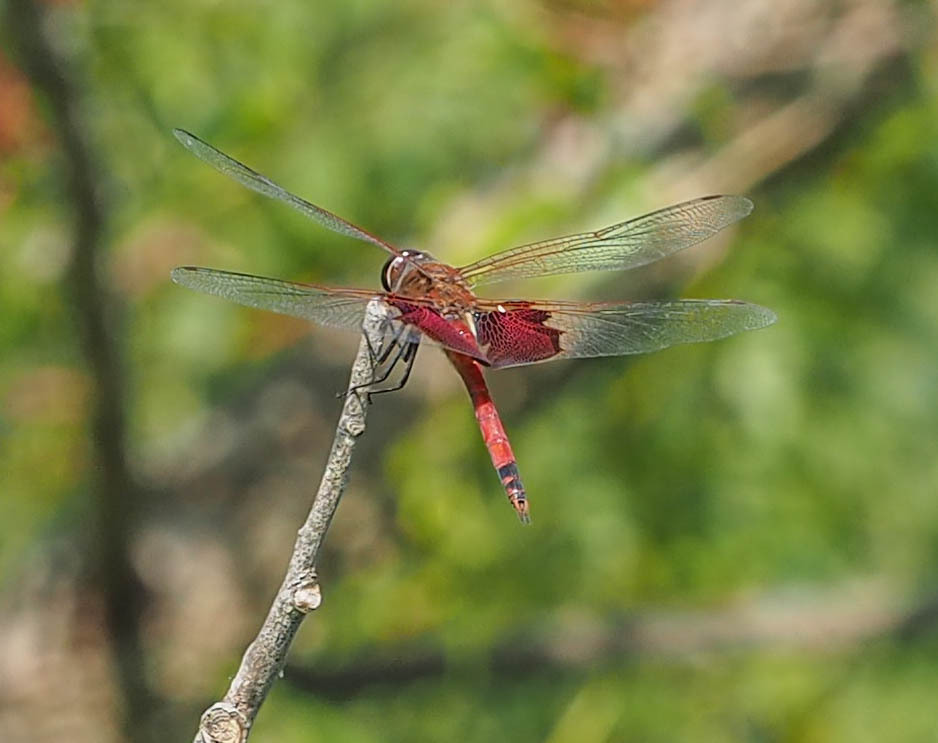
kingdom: Animalia
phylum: Arthropoda
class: Insecta
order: Odonata
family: Libellulidae
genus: Tramea
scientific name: Tramea carolina
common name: Carolina saddlebags
